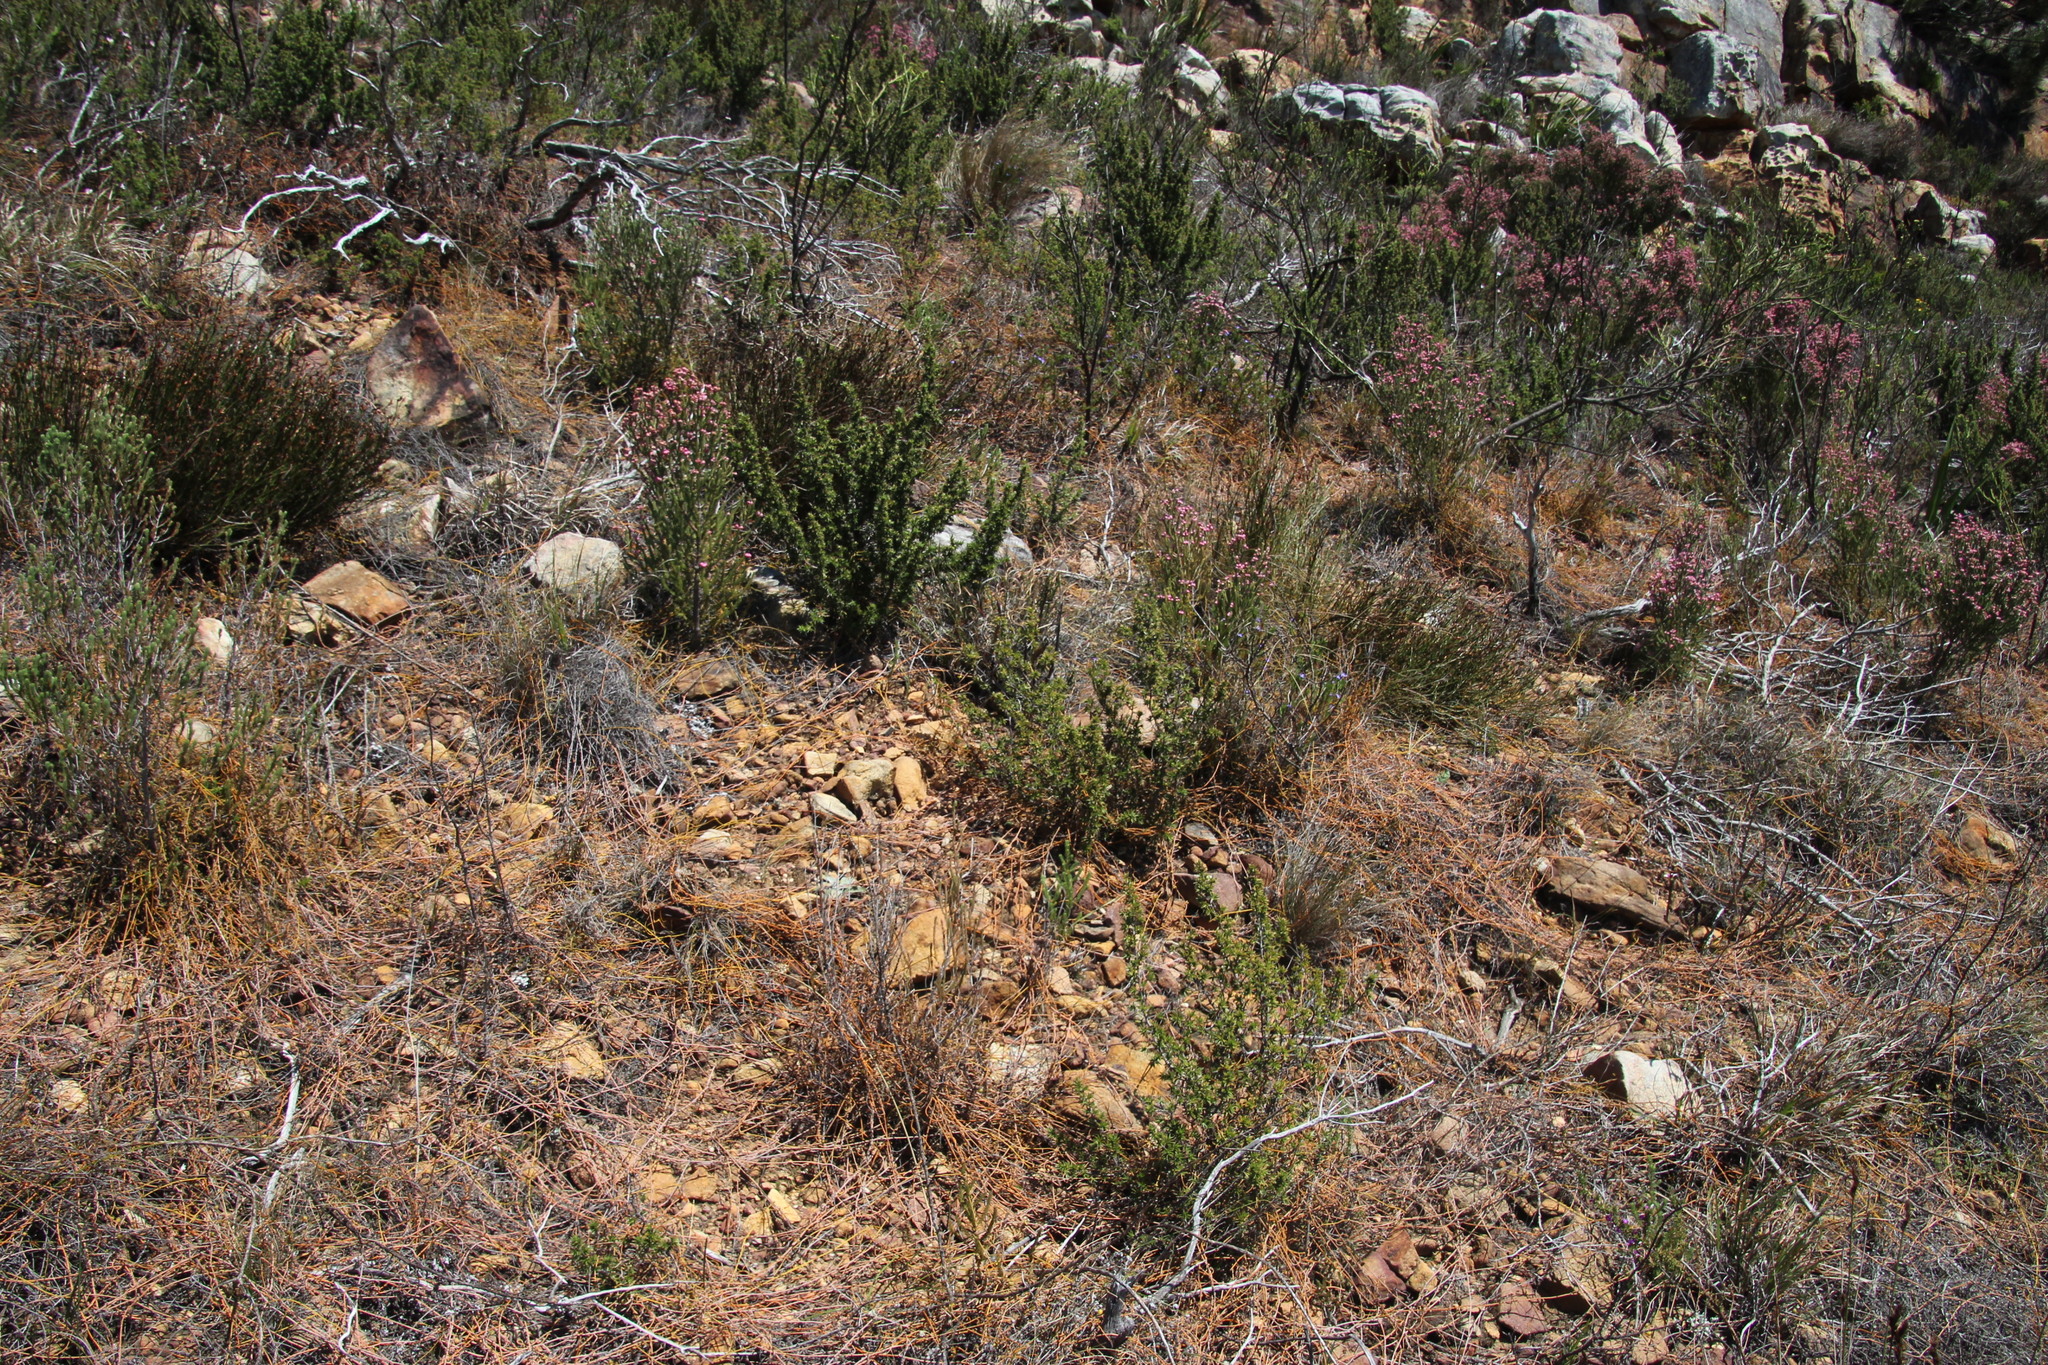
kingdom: Plantae
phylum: Tracheophyta
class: Magnoliopsida
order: Laurales
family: Lauraceae
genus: Cassytha
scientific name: Cassytha ciliolata
